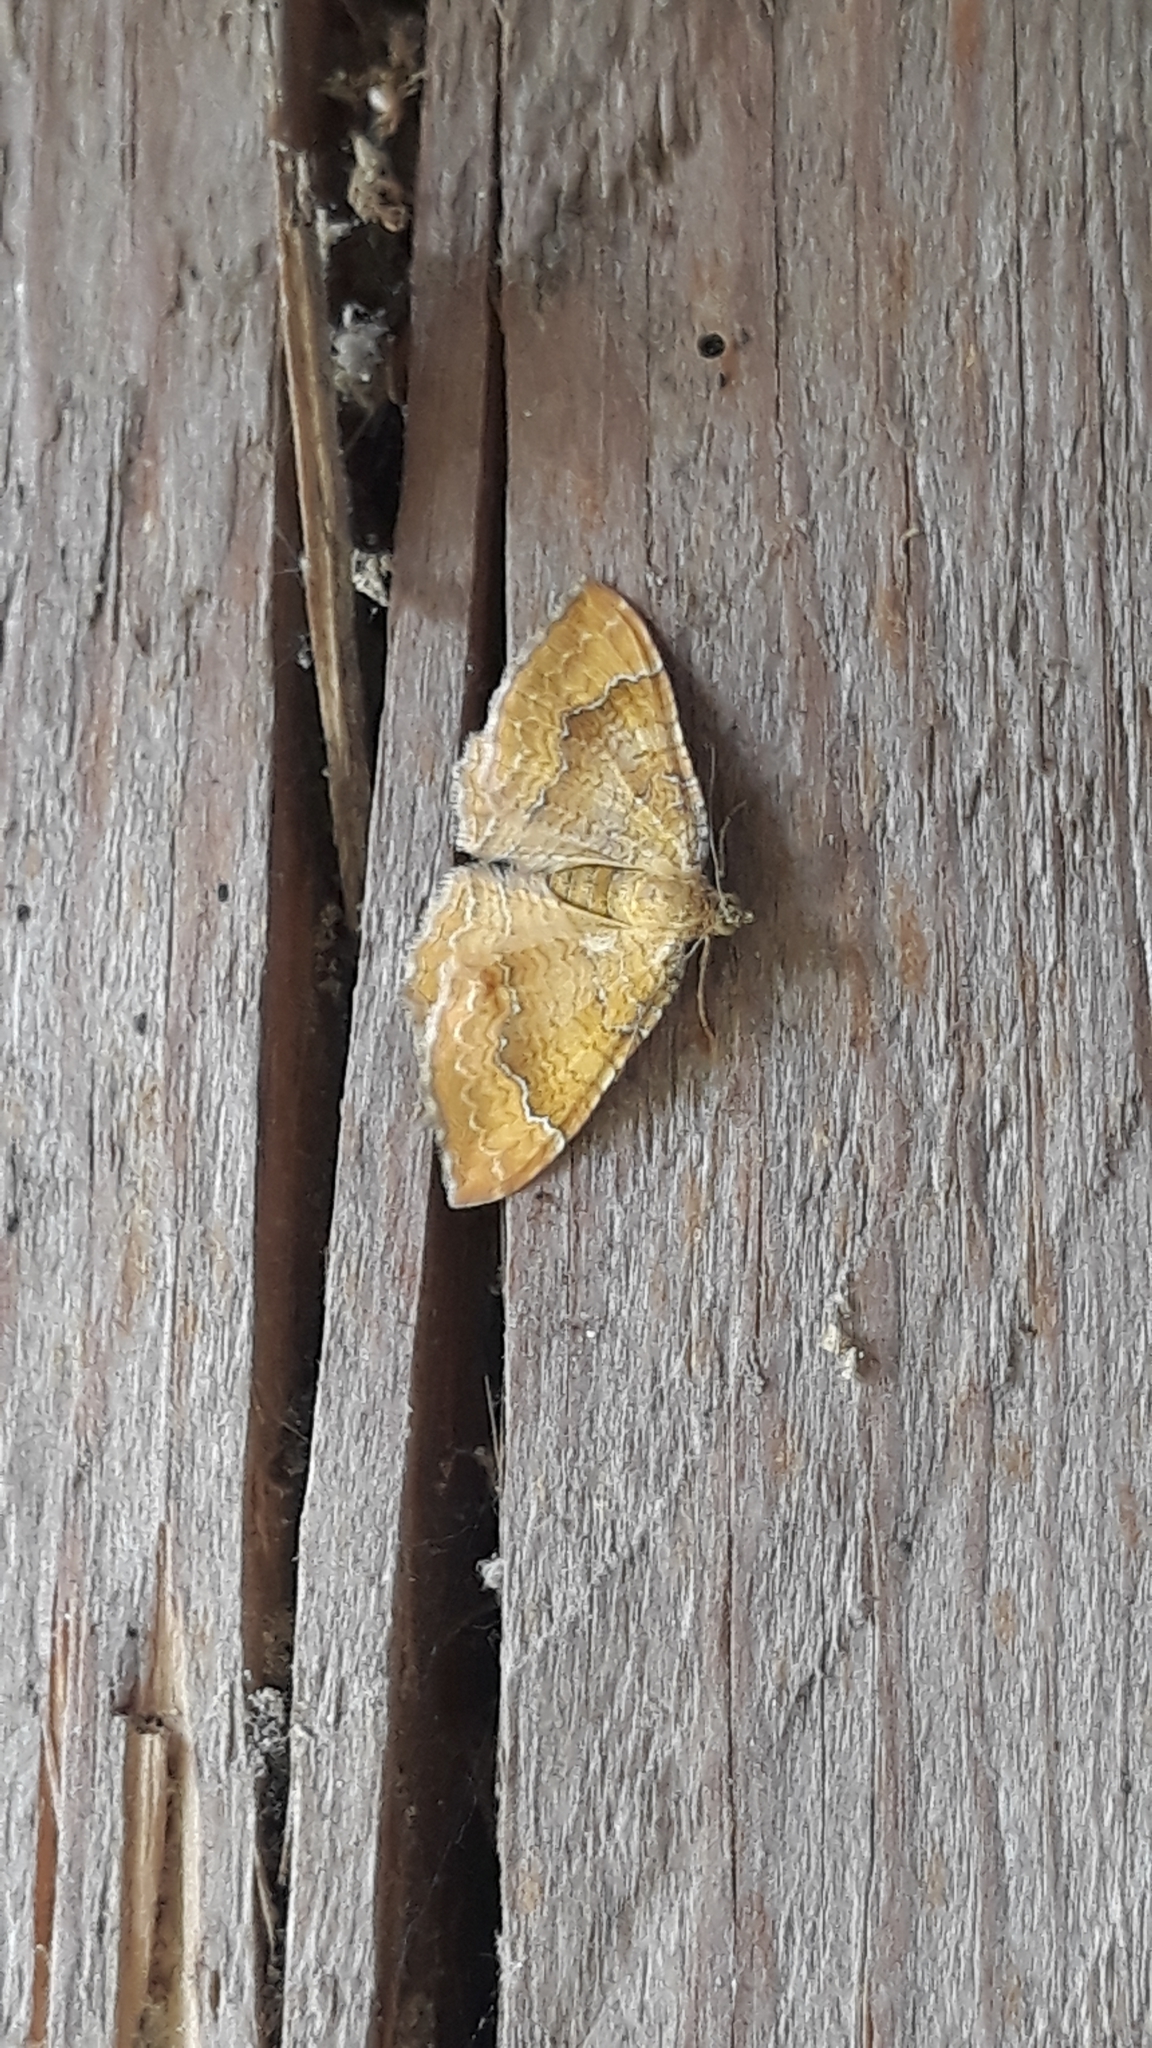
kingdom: Animalia
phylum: Arthropoda
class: Insecta
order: Lepidoptera
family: Geometridae
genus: Camptogramma
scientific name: Camptogramma bilineata
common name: Yellow shell
